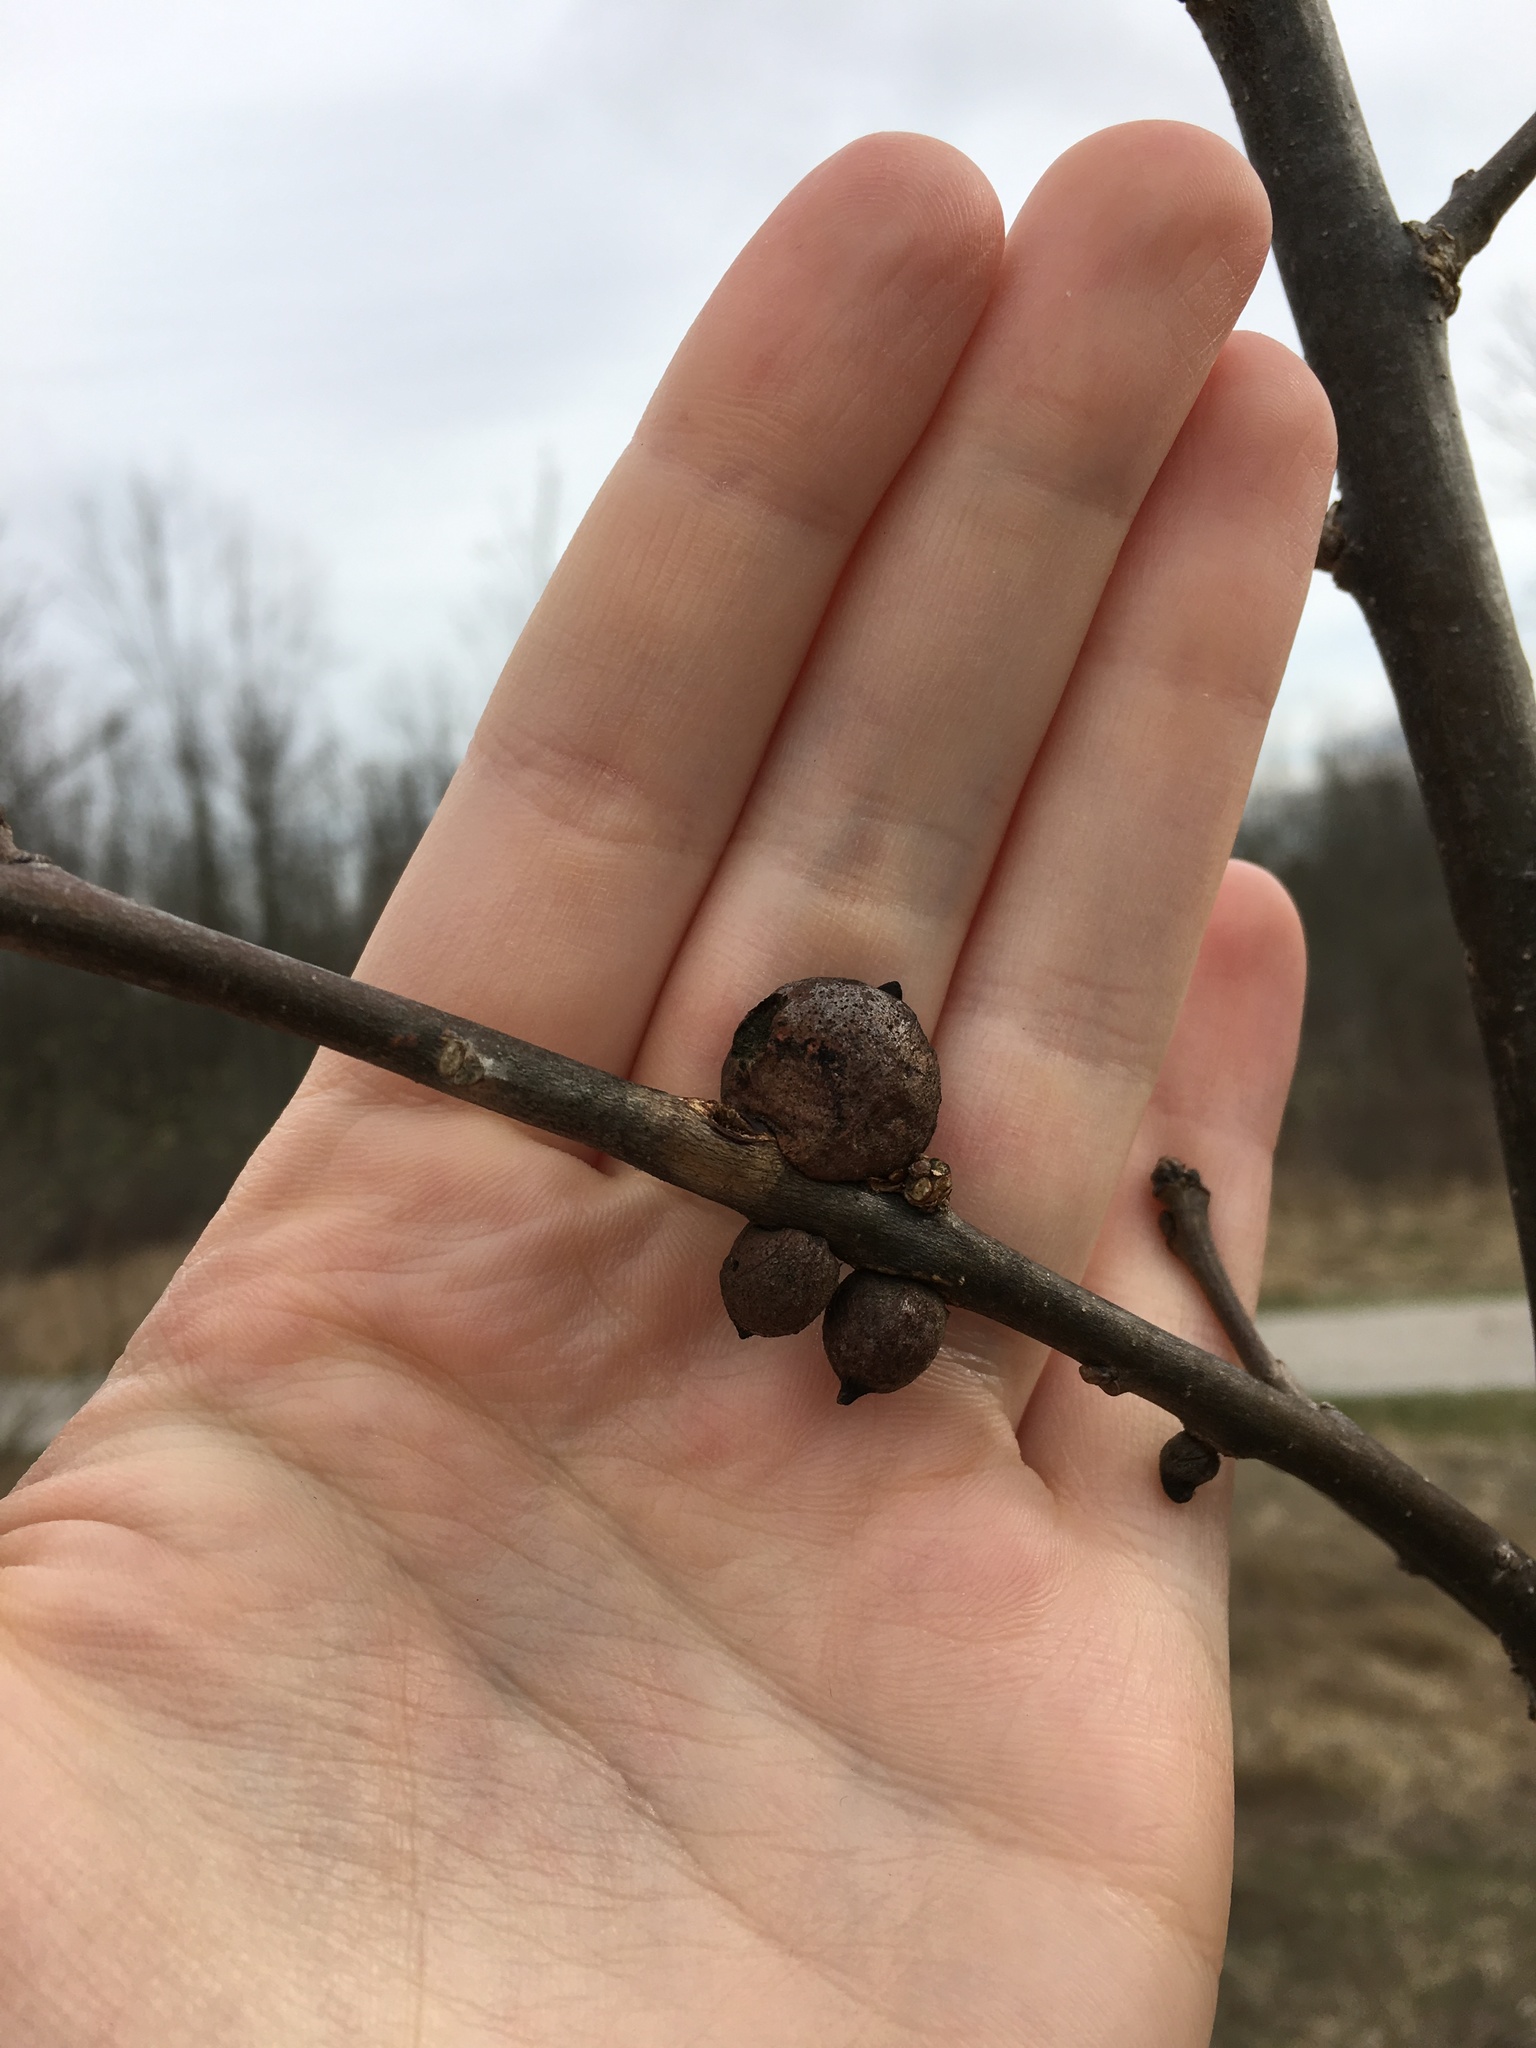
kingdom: Animalia
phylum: Arthropoda
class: Insecta
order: Hymenoptera
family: Cynipidae
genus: Disholcaspis
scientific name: Disholcaspis
